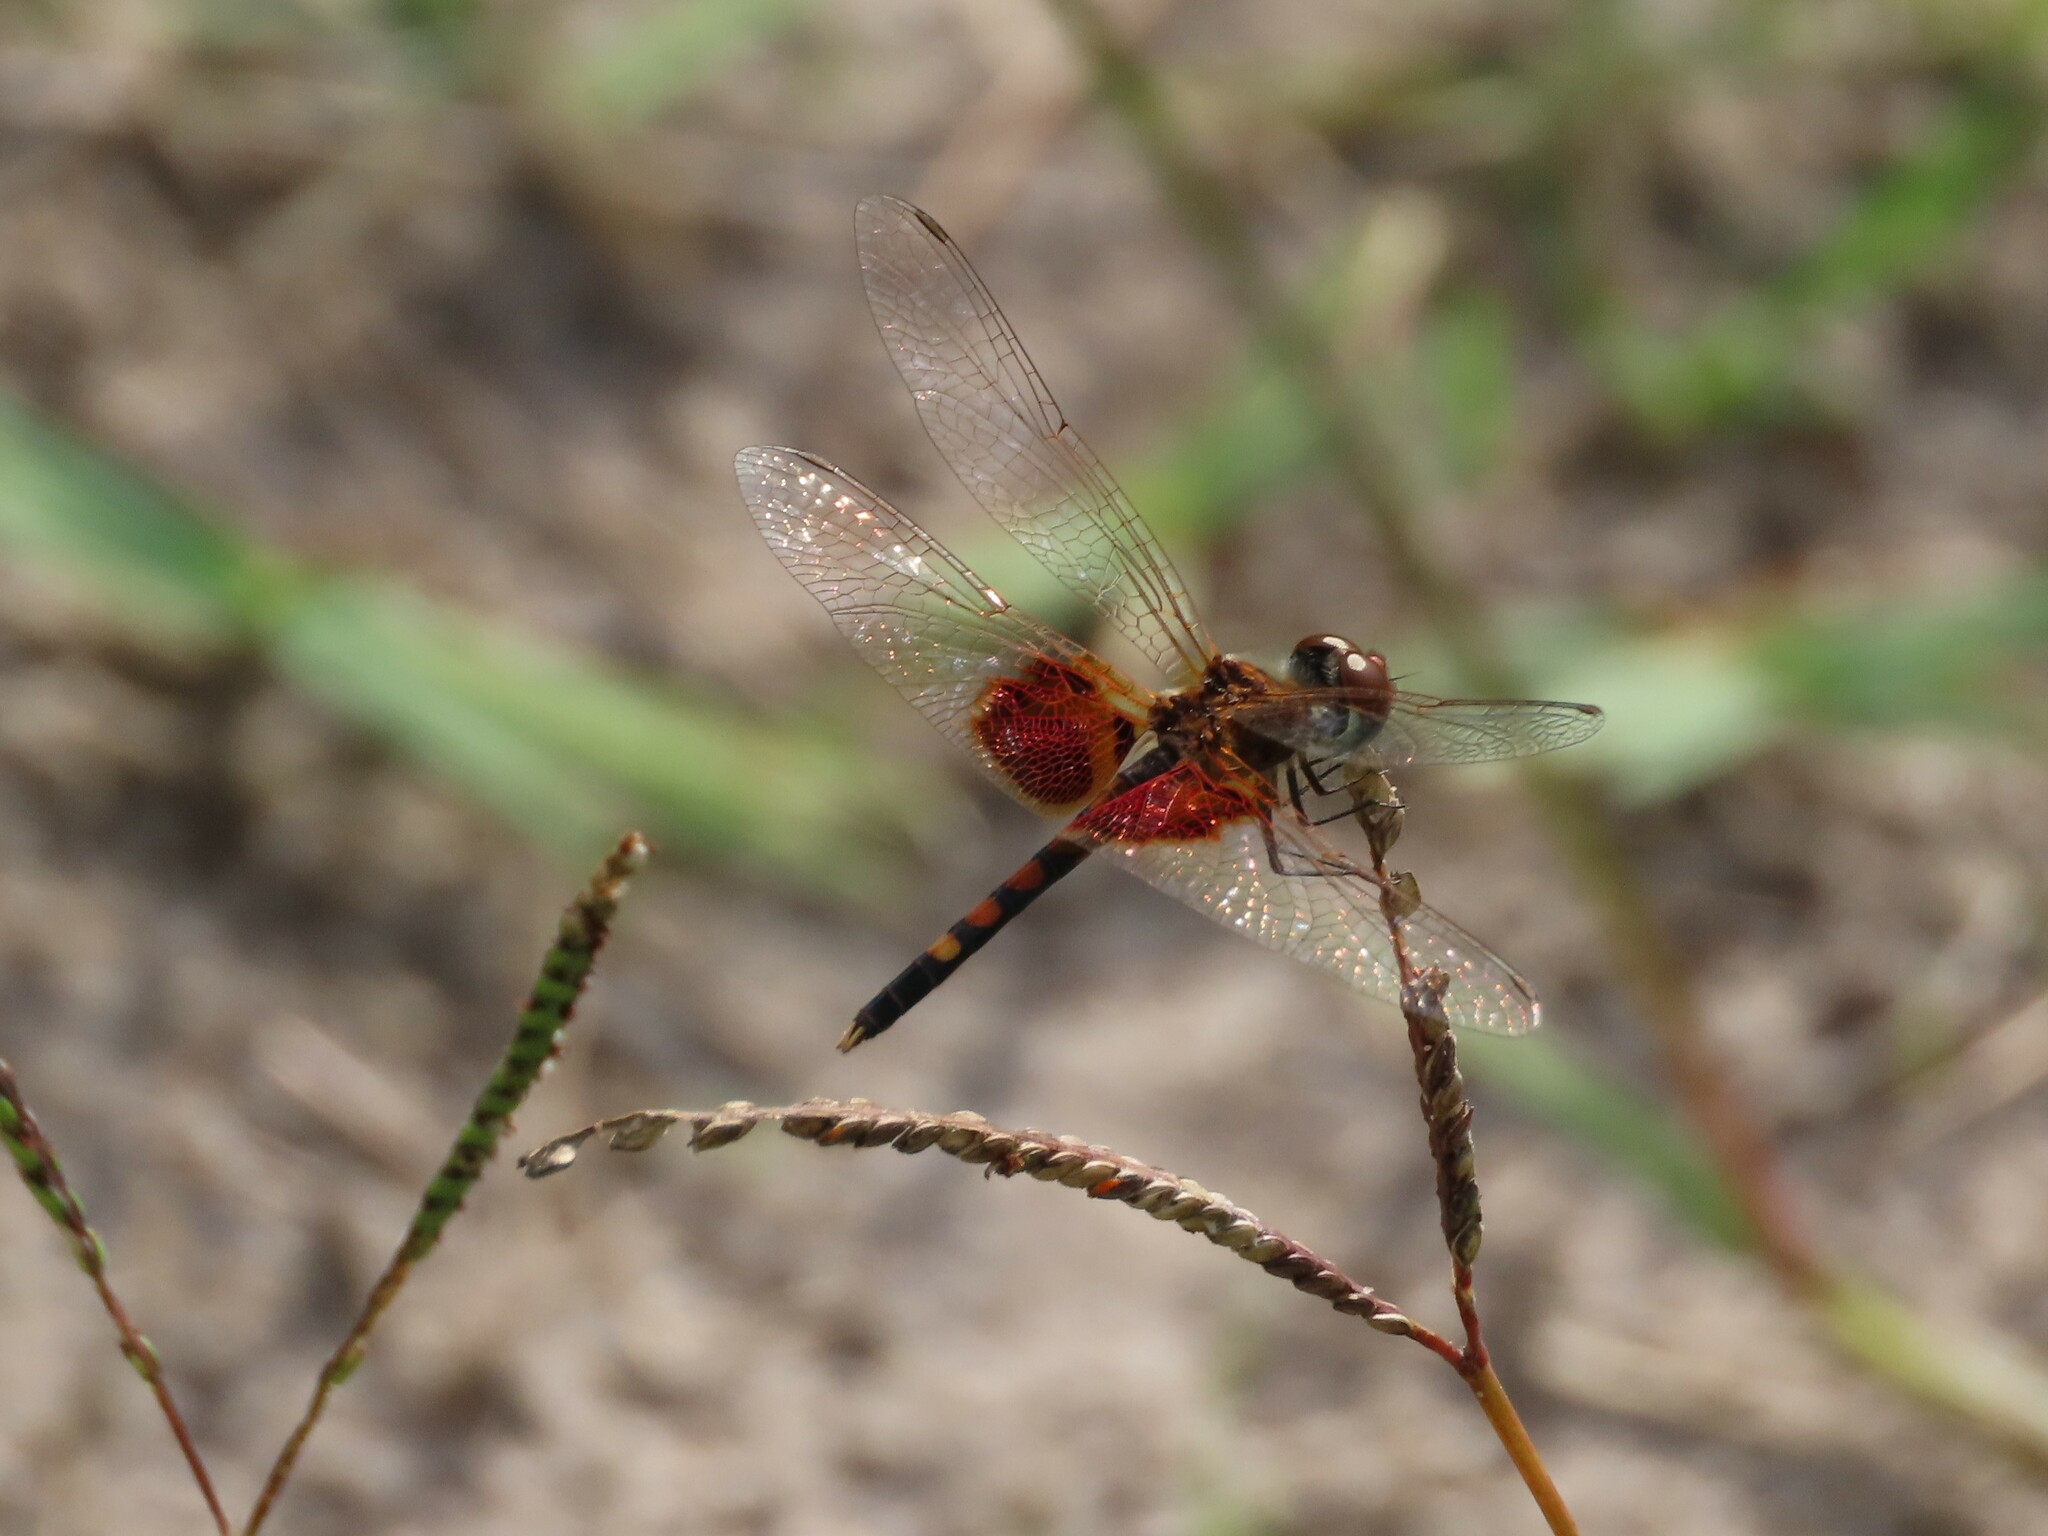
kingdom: Animalia
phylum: Arthropoda
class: Insecta
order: Odonata
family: Libellulidae
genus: Celithemis
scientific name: Celithemis amanda
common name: Amanda's pennant
